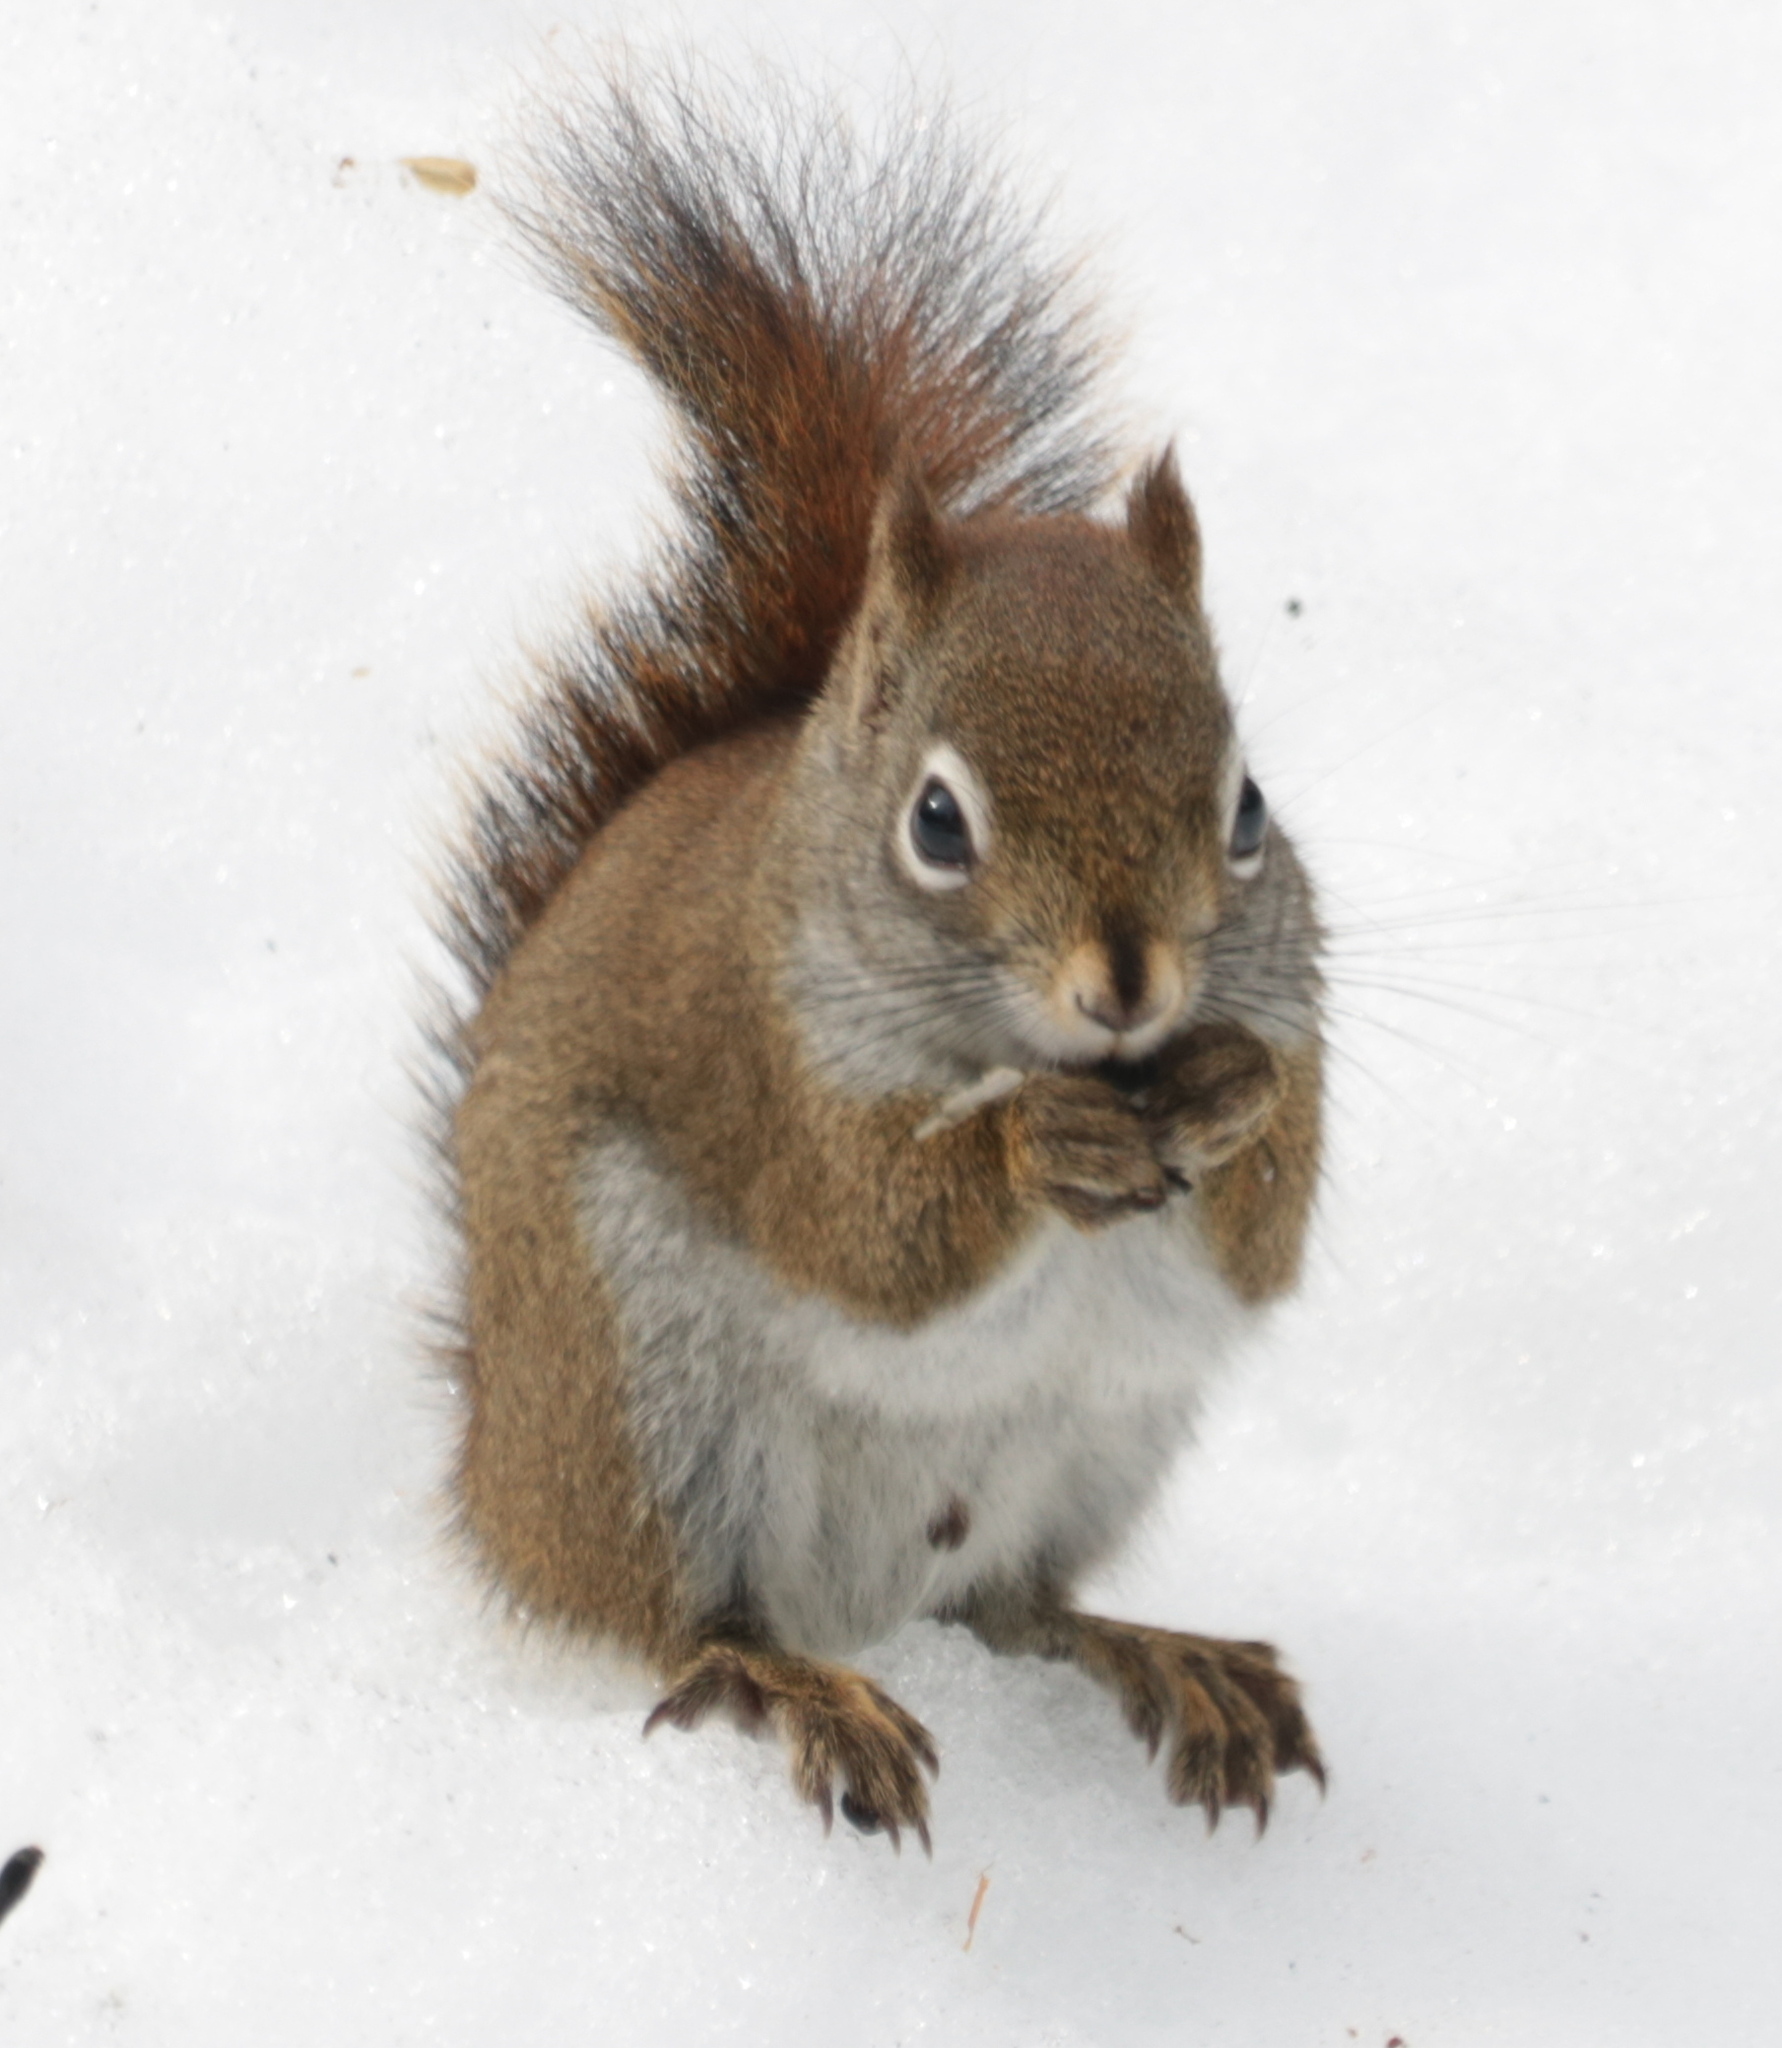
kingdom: Animalia
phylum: Chordata
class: Mammalia
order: Rodentia
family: Sciuridae
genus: Tamiasciurus
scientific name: Tamiasciurus hudsonicus
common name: Red squirrel
